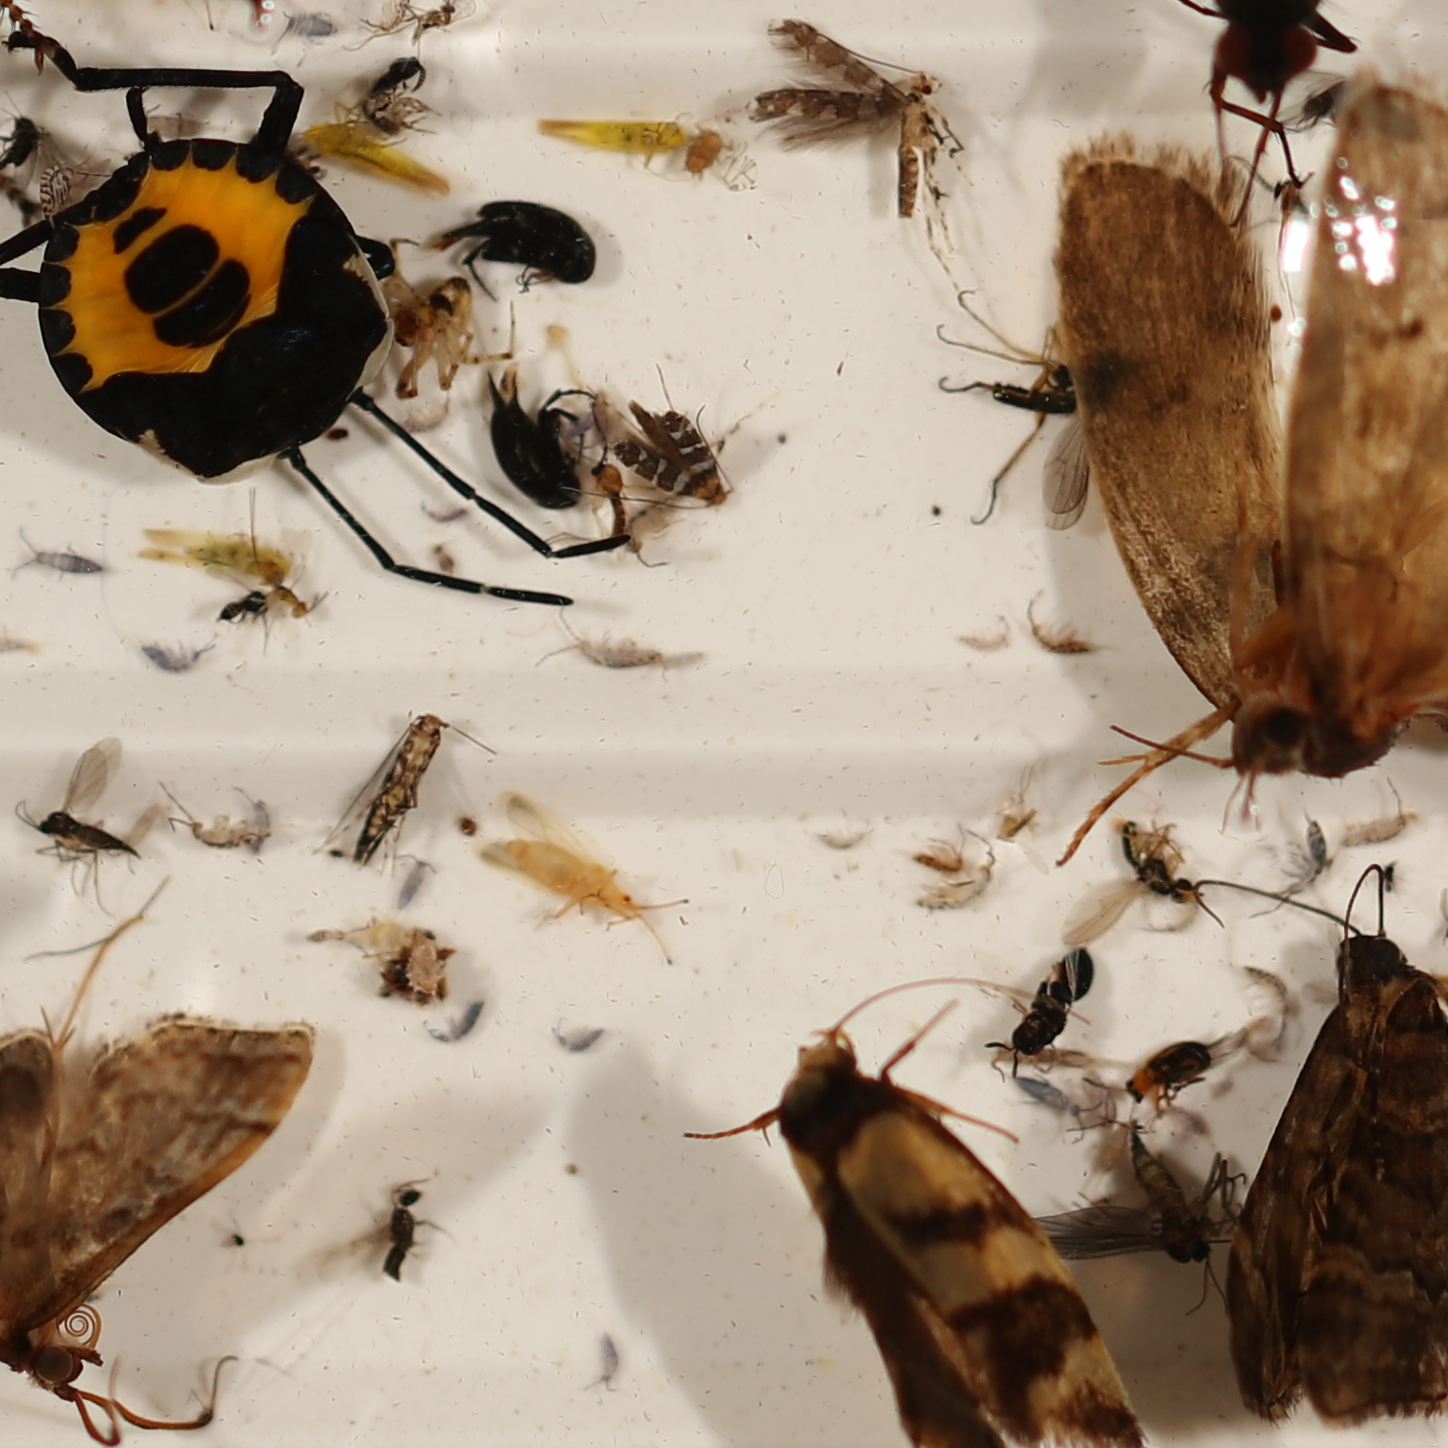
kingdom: Animalia
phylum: Arthropoda
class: Insecta
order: Lepidoptera
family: Oecophoridae
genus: Olbonoma
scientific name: Olbonoma triptycha
